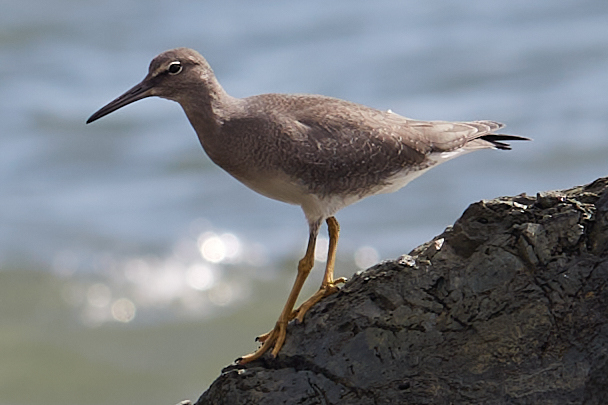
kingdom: Animalia
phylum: Chordata
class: Aves
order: Charadriiformes
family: Scolopacidae
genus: Tringa
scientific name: Tringa incana
